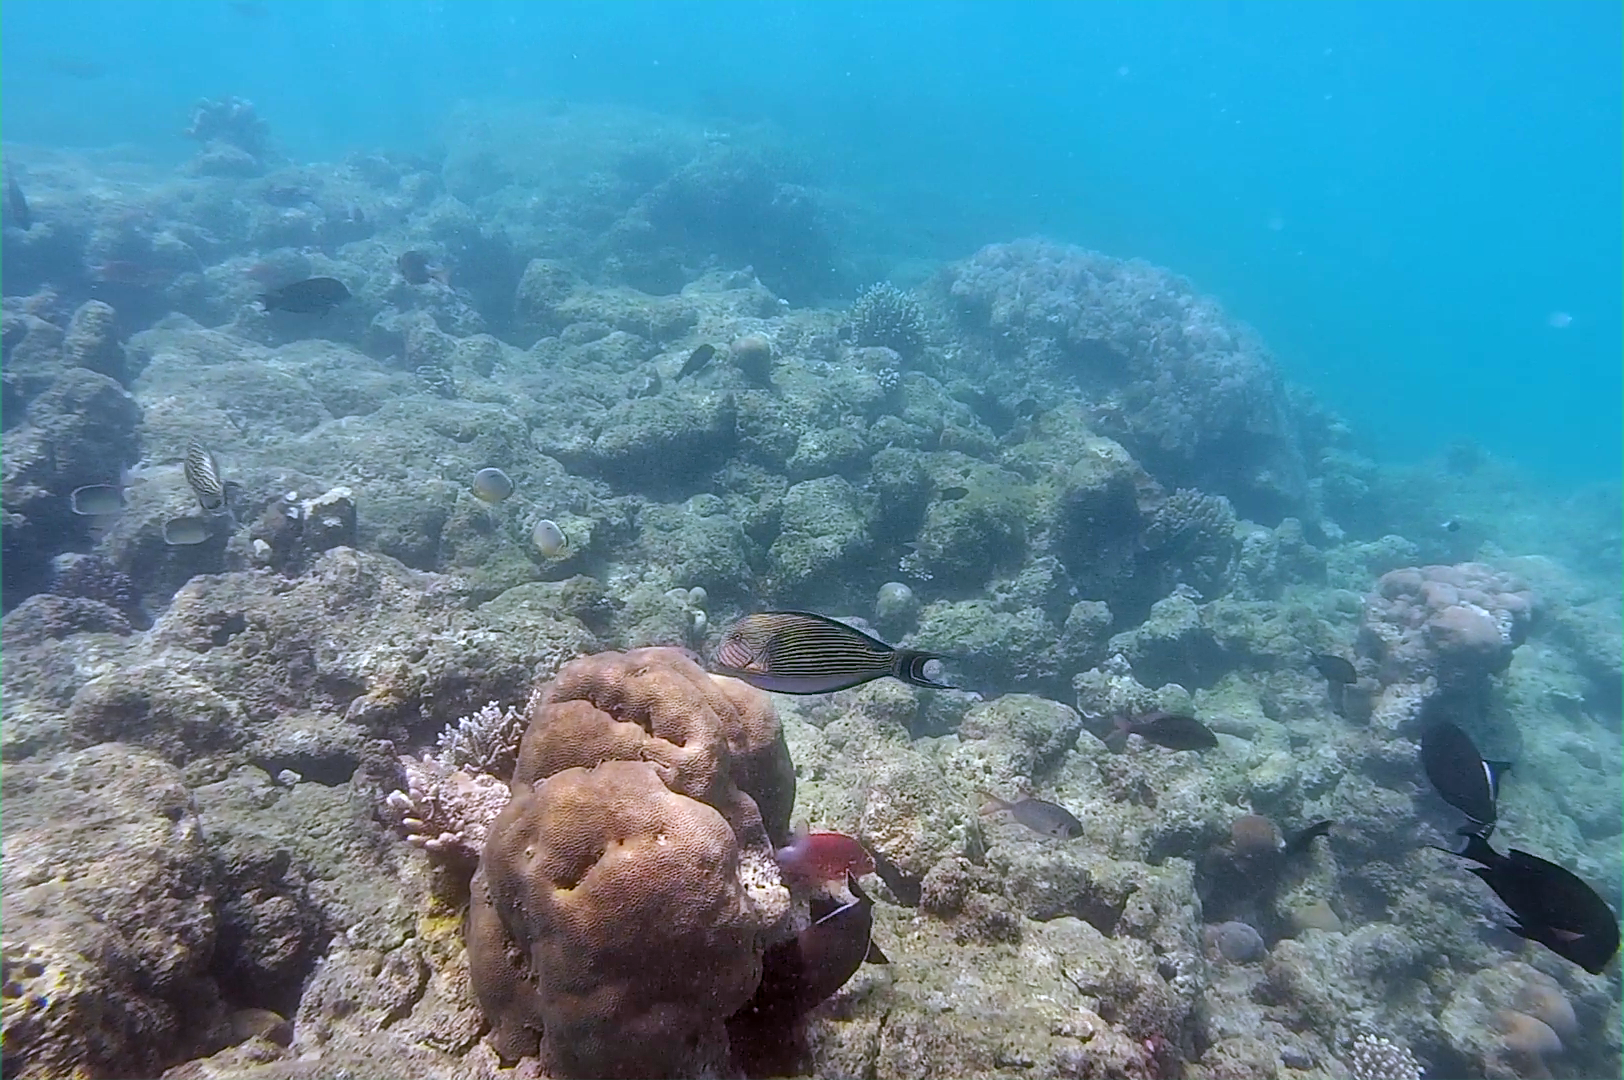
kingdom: Animalia
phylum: Chordata
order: Perciformes
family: Acanthuridae
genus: Acanthurus
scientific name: Acanthurus lineatus
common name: Striped surgeonfish
